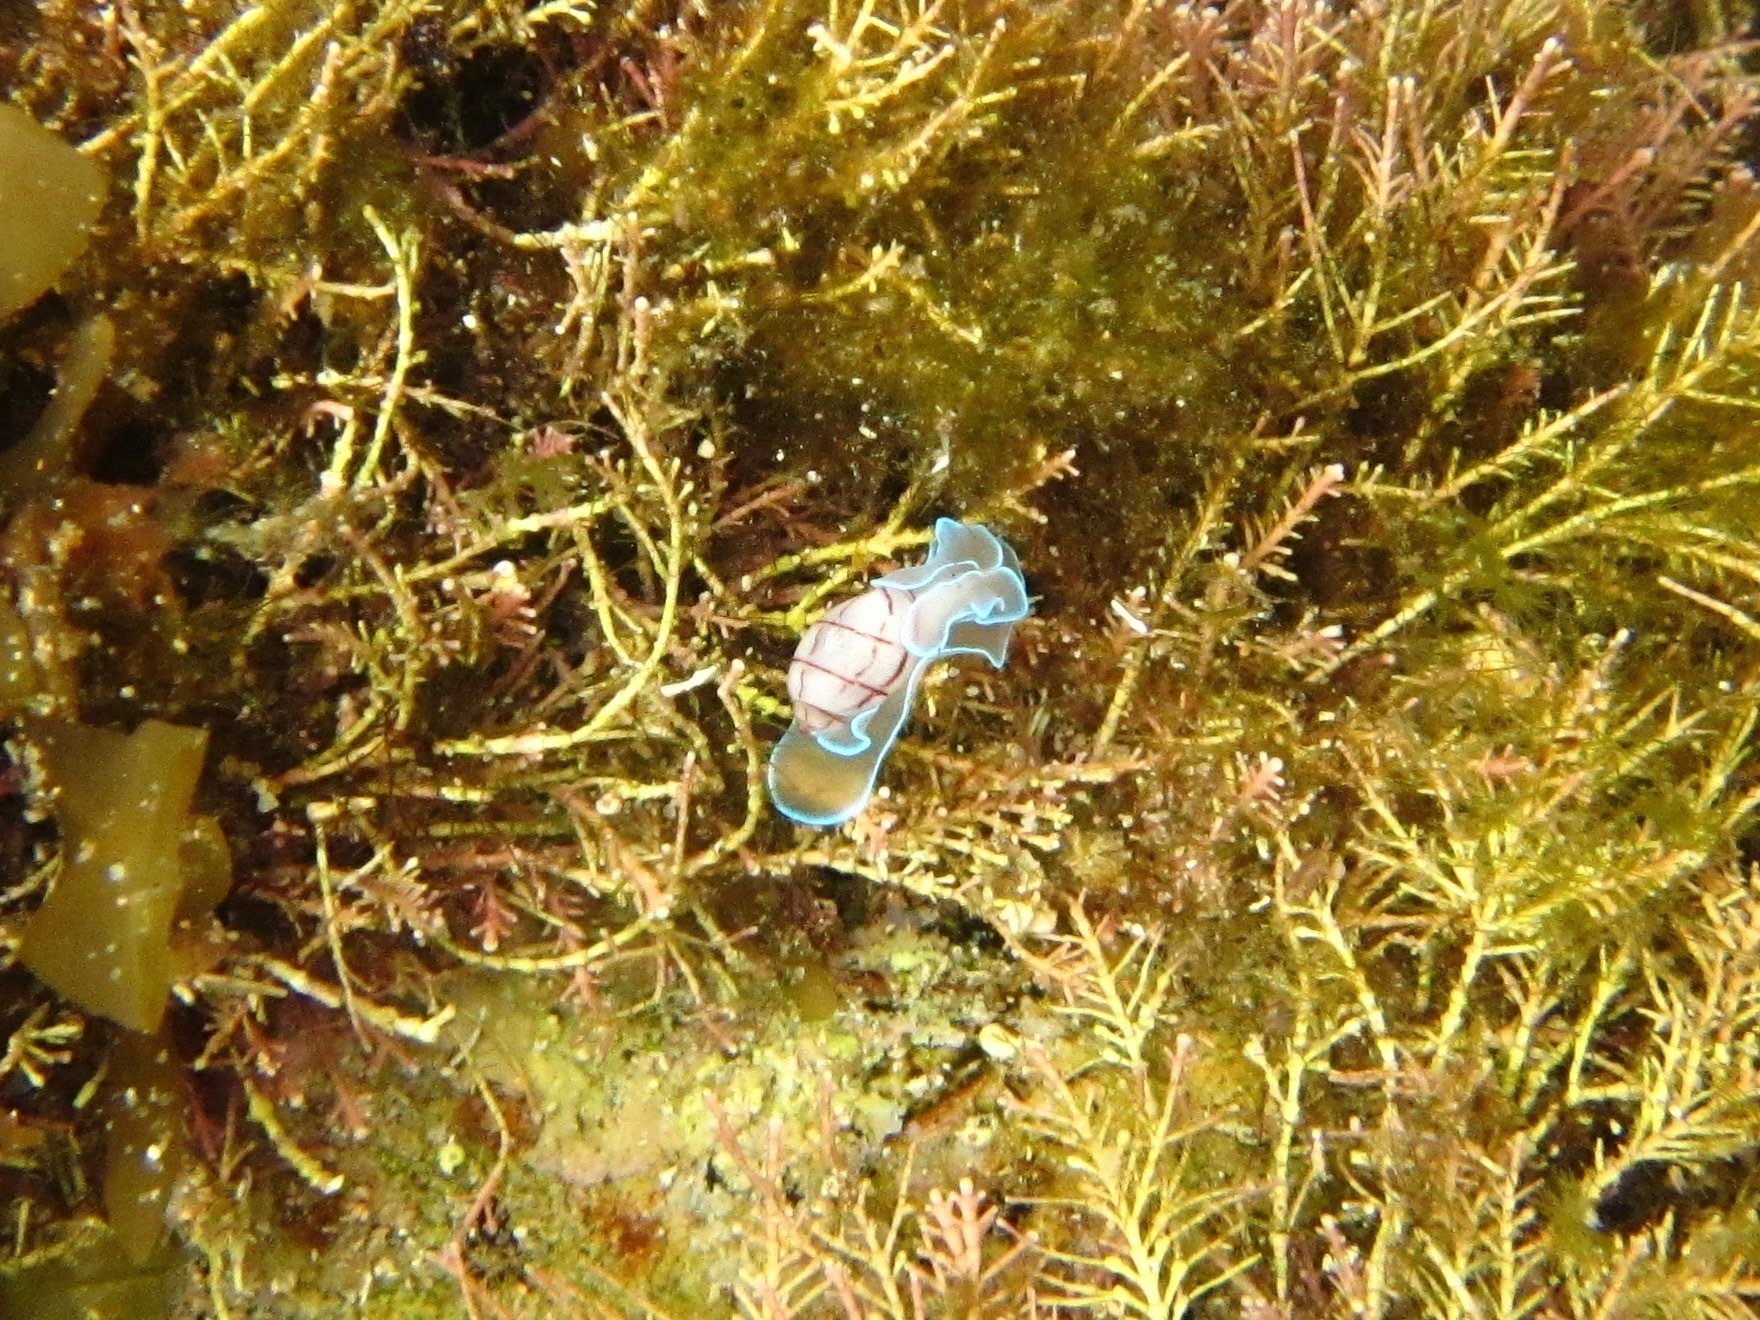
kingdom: Animalia
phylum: Mollusca
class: Gastropoda
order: Cephalaspidea
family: Aplustridae
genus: Bullina
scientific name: Bullina lineata
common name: Lined bubble snail
